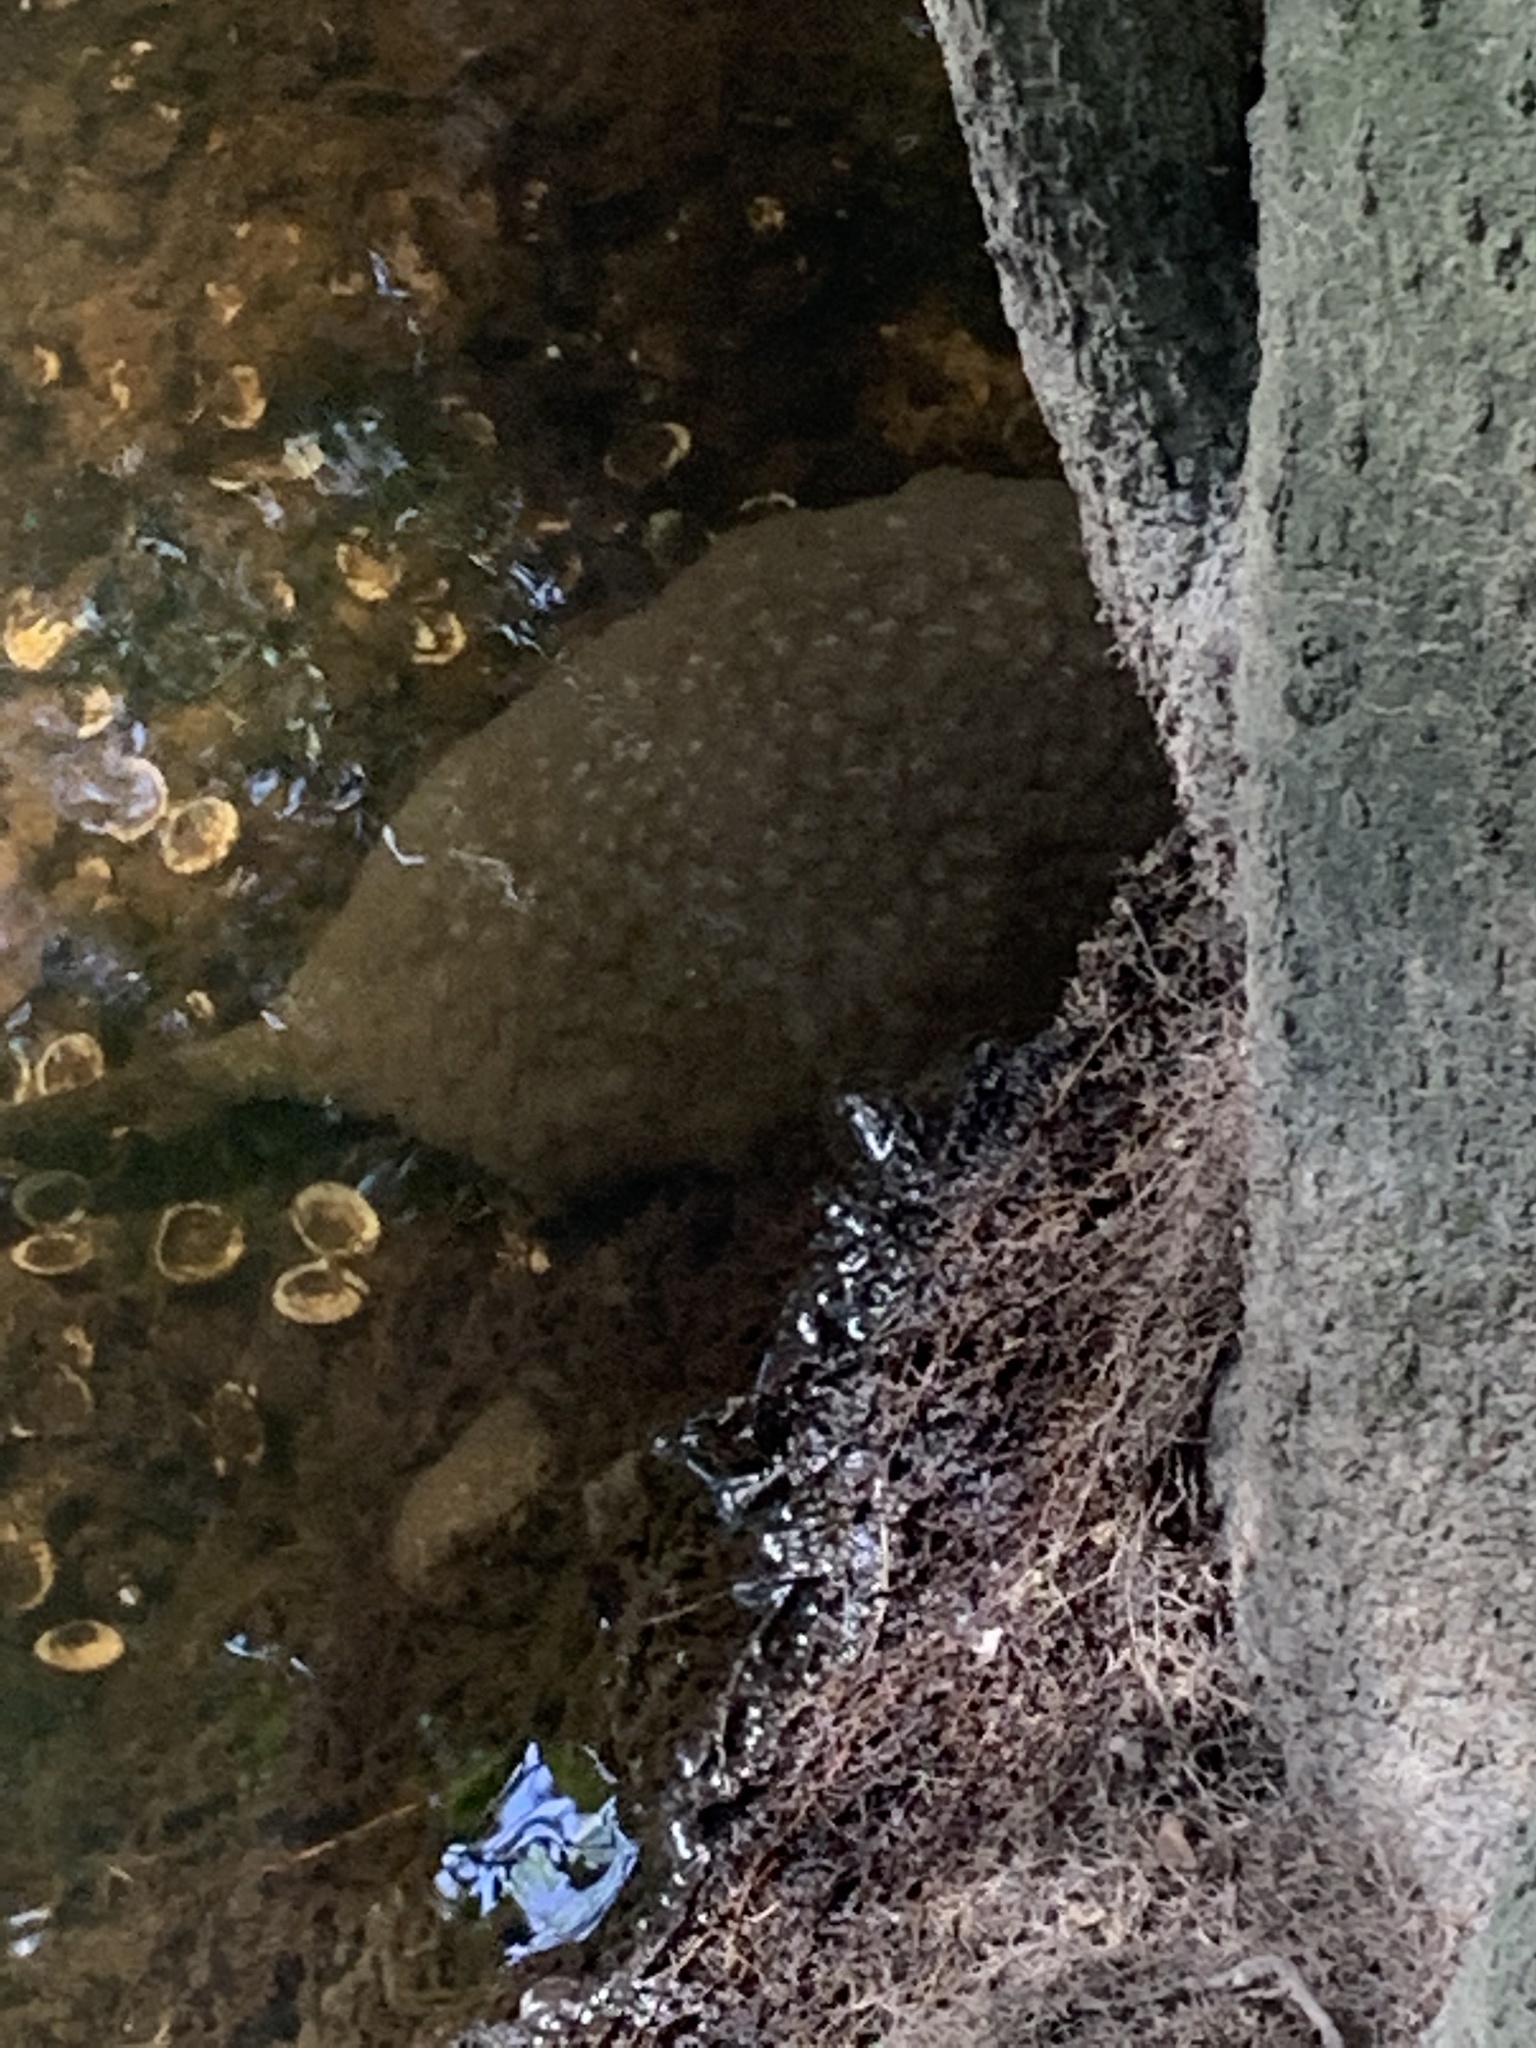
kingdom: Animalia
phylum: Bryozoa
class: Phylactolaemata
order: Plumatellida
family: Pectinatellidae
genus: Pectinatella
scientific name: Pectinatella magnifica
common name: Magnificent bryozoan
